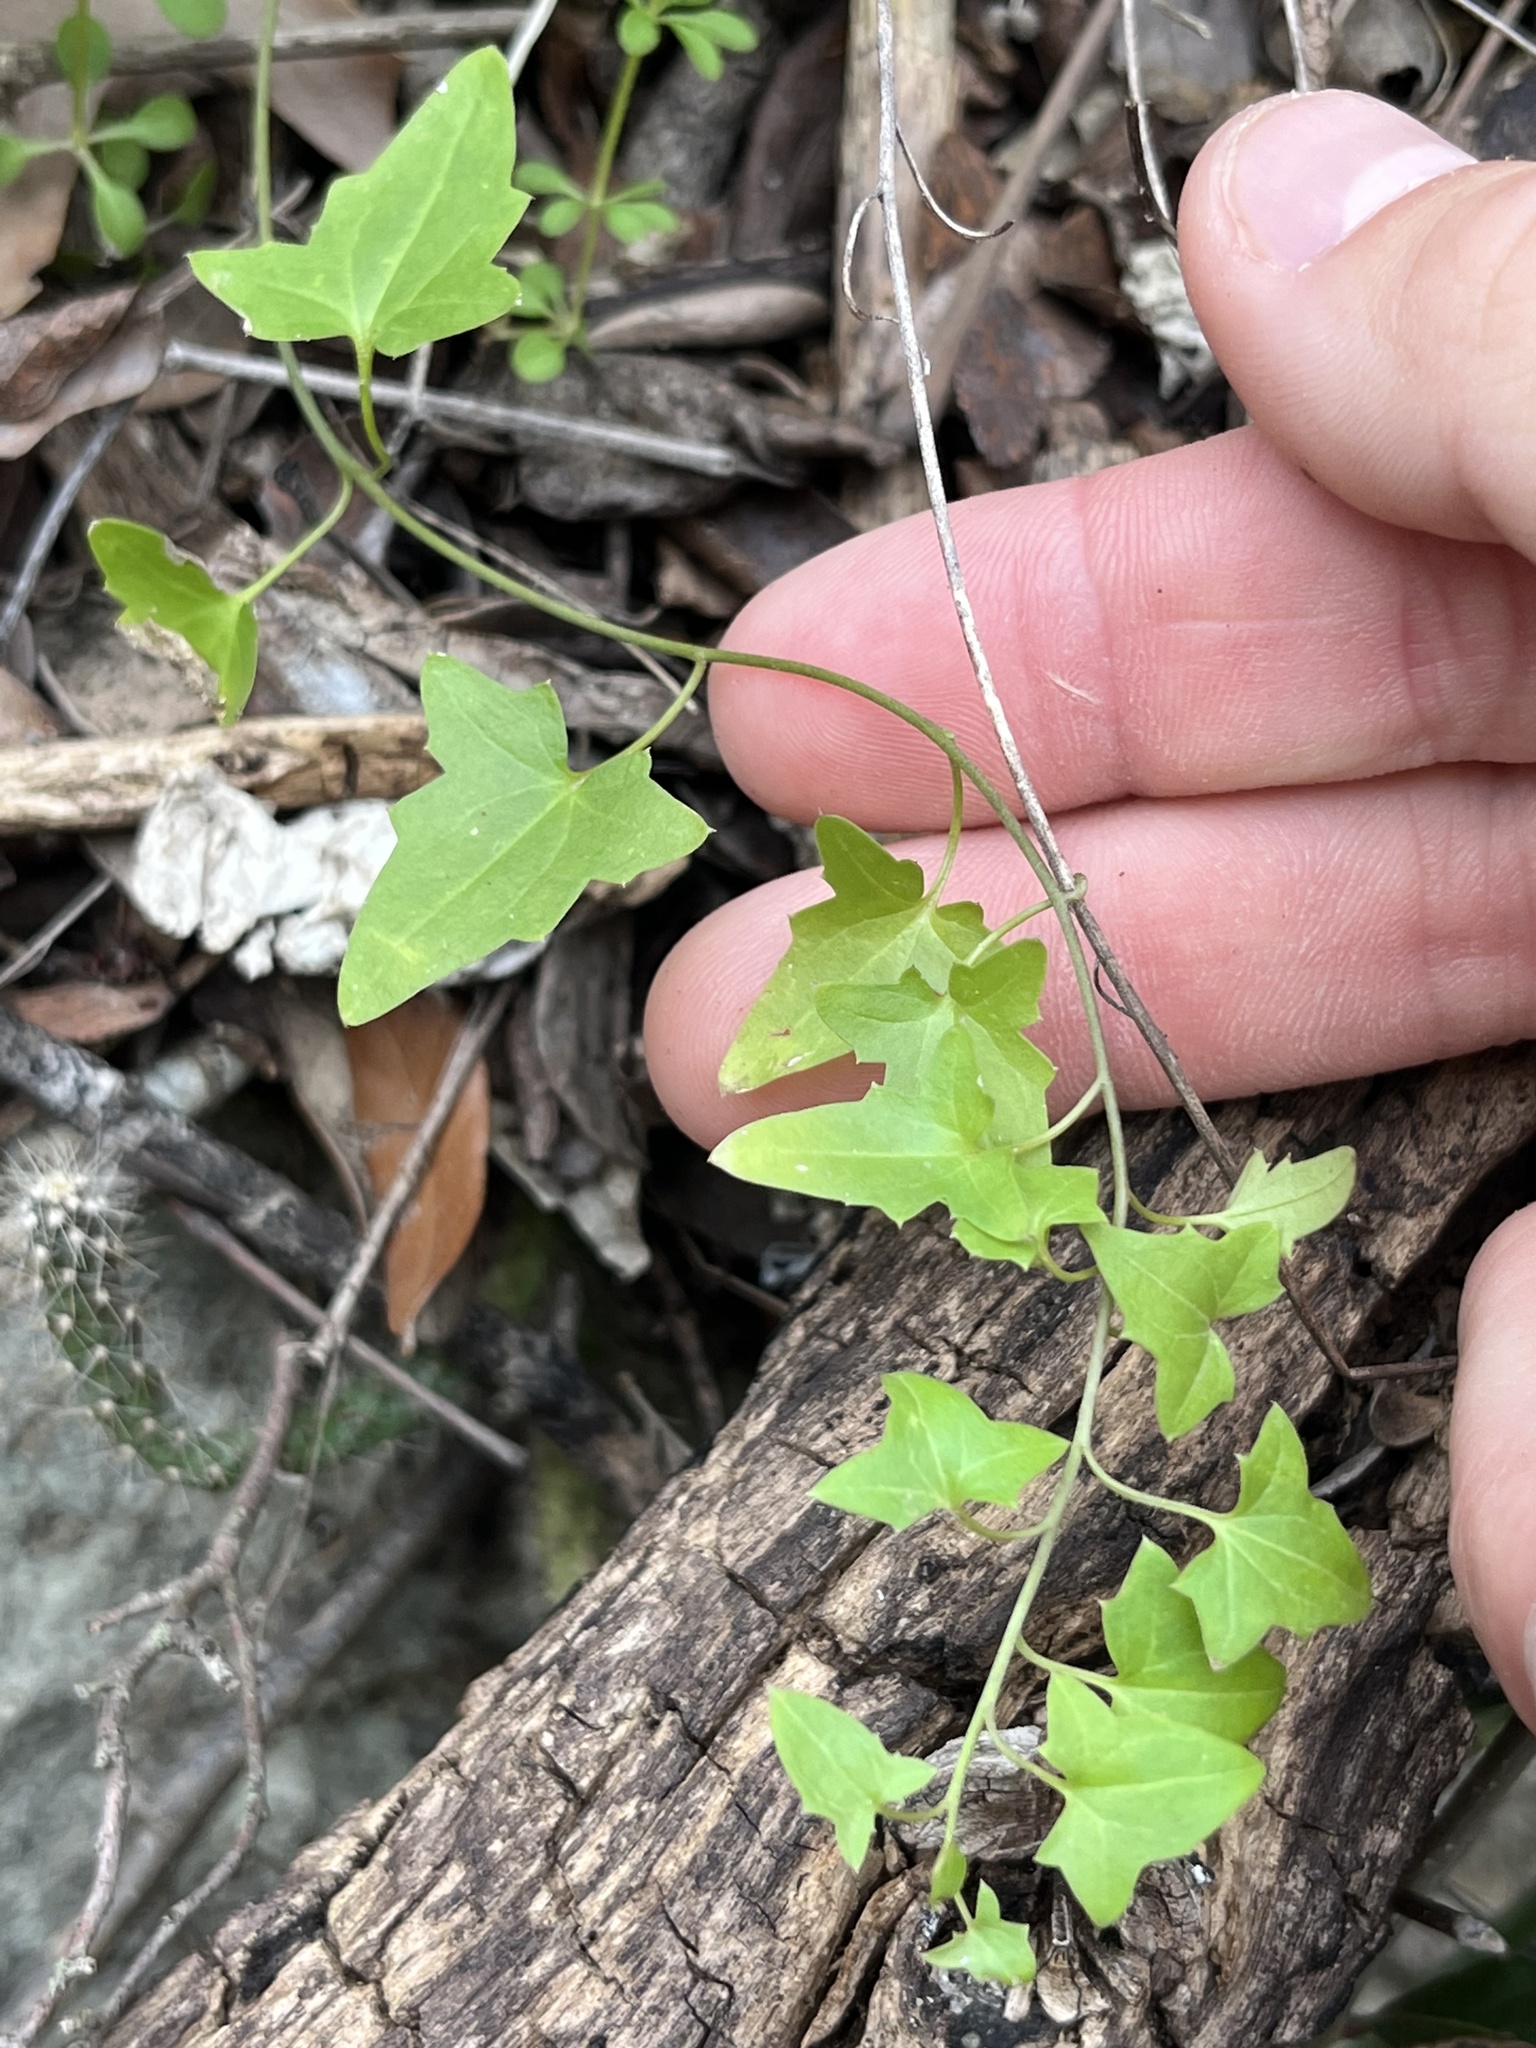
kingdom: Plantae
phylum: Tracheophyta
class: Magnoliopsida
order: Lamiales
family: Plantaginaceae
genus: Maurandella
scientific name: Maurandella antirrhiniflora
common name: Violet twining-snapdragon
